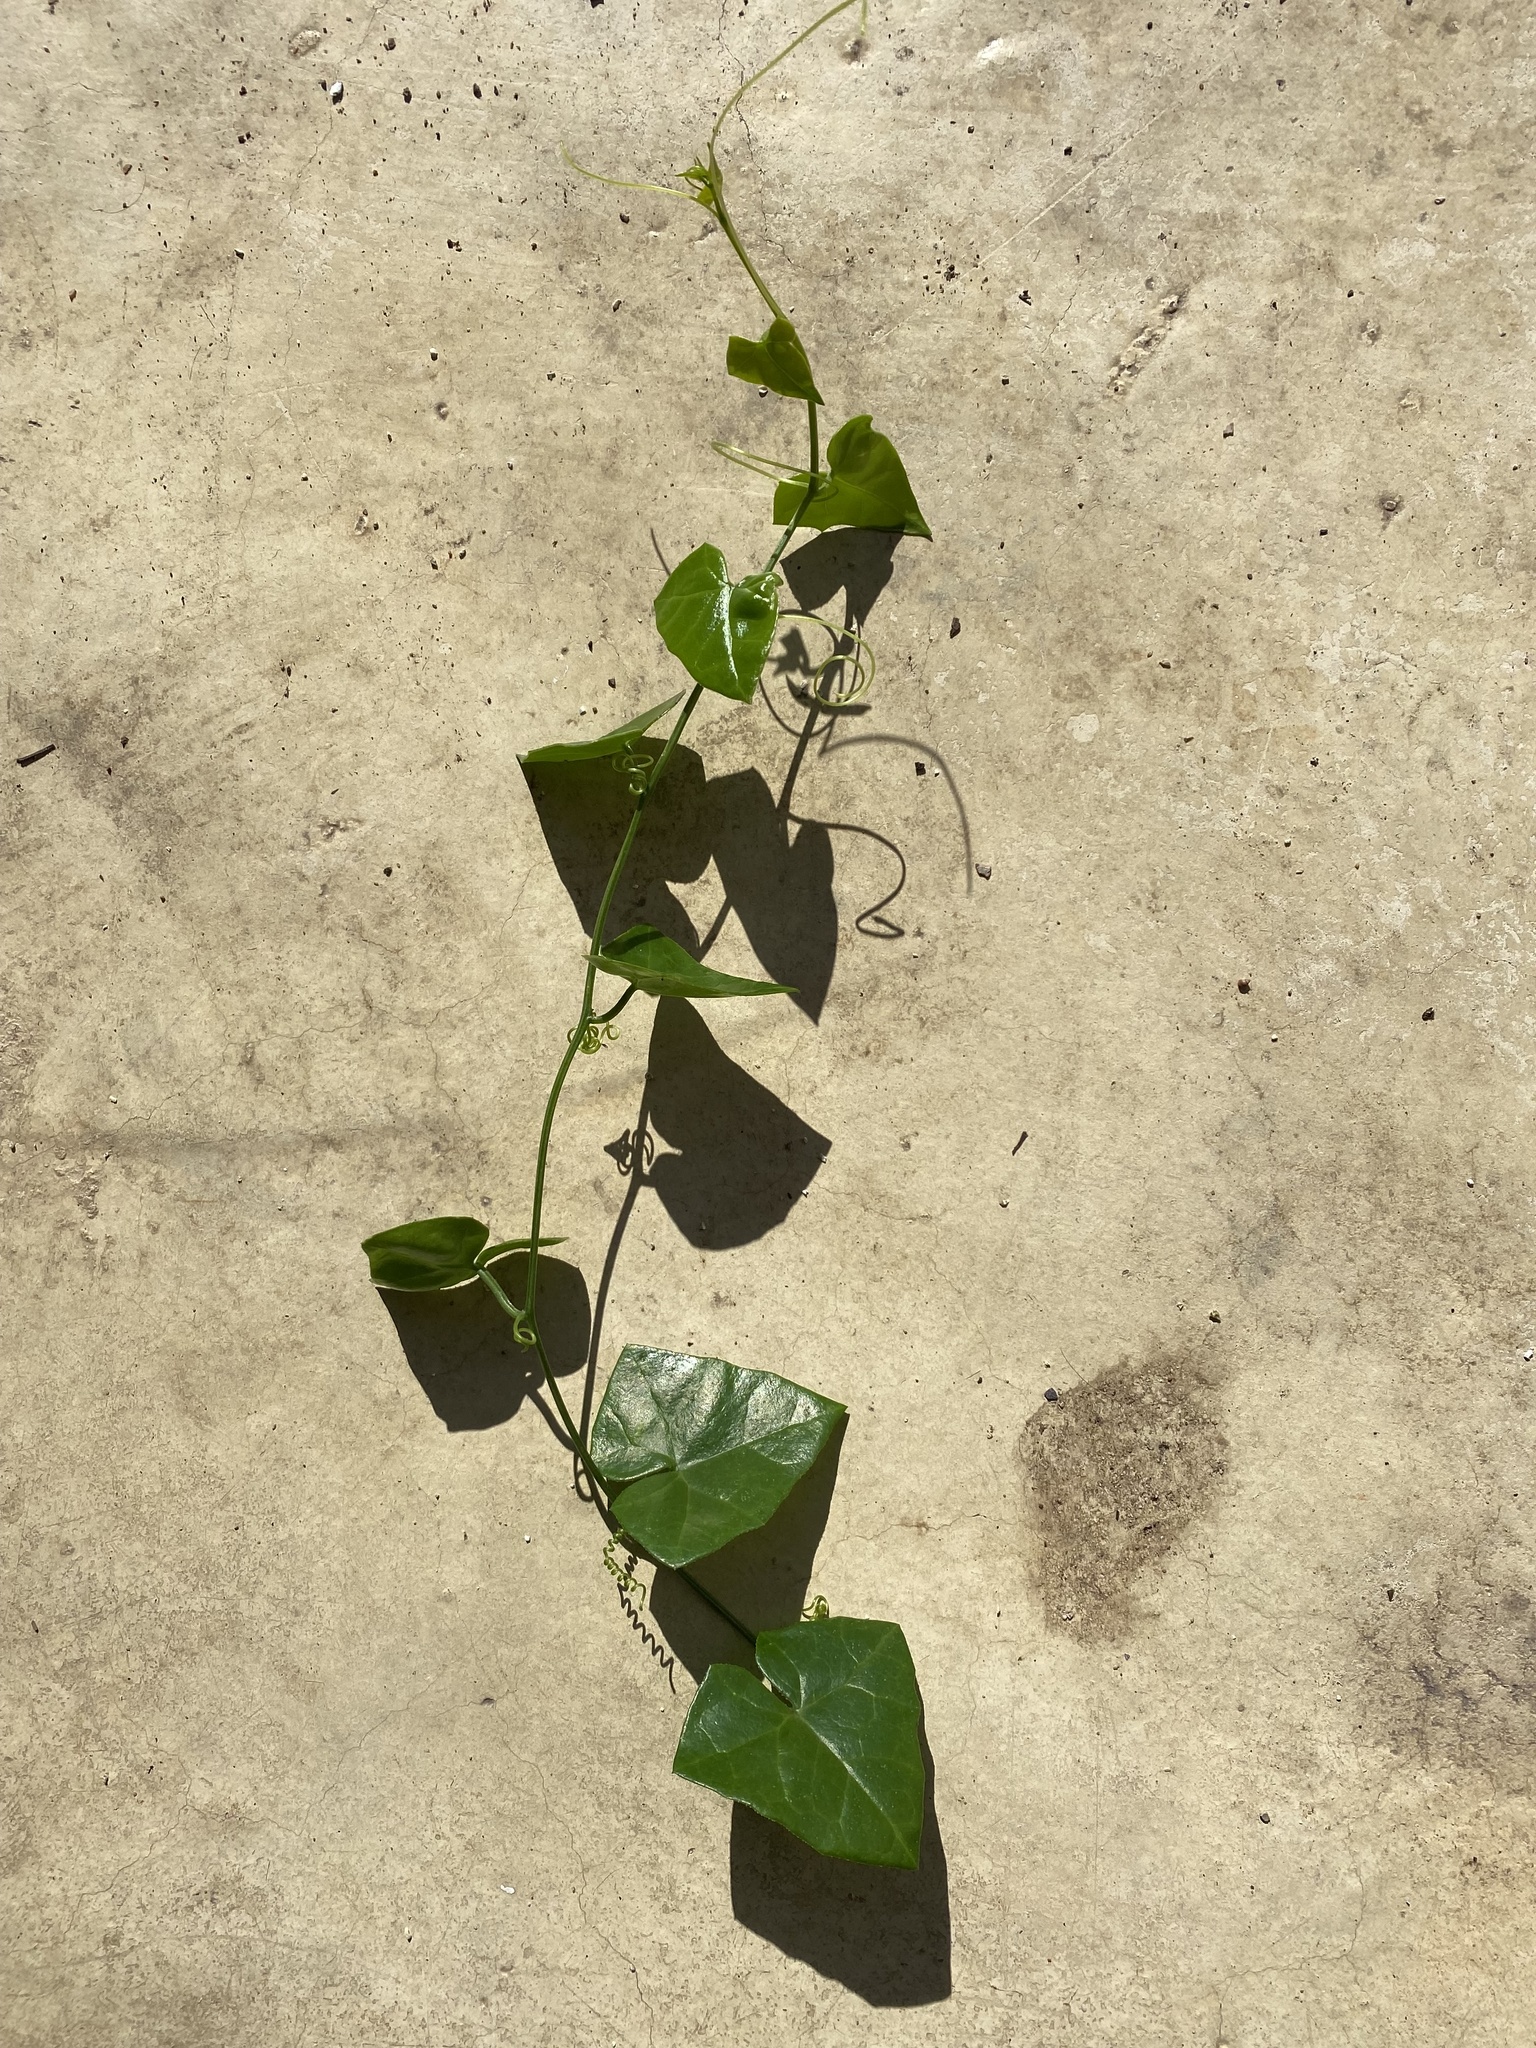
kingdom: Plantae
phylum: Tracheophyta
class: Magnoliopsida
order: Cucurbitales
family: Cucurbitaceae
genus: Kedrostis
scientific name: Kedrostis nana
